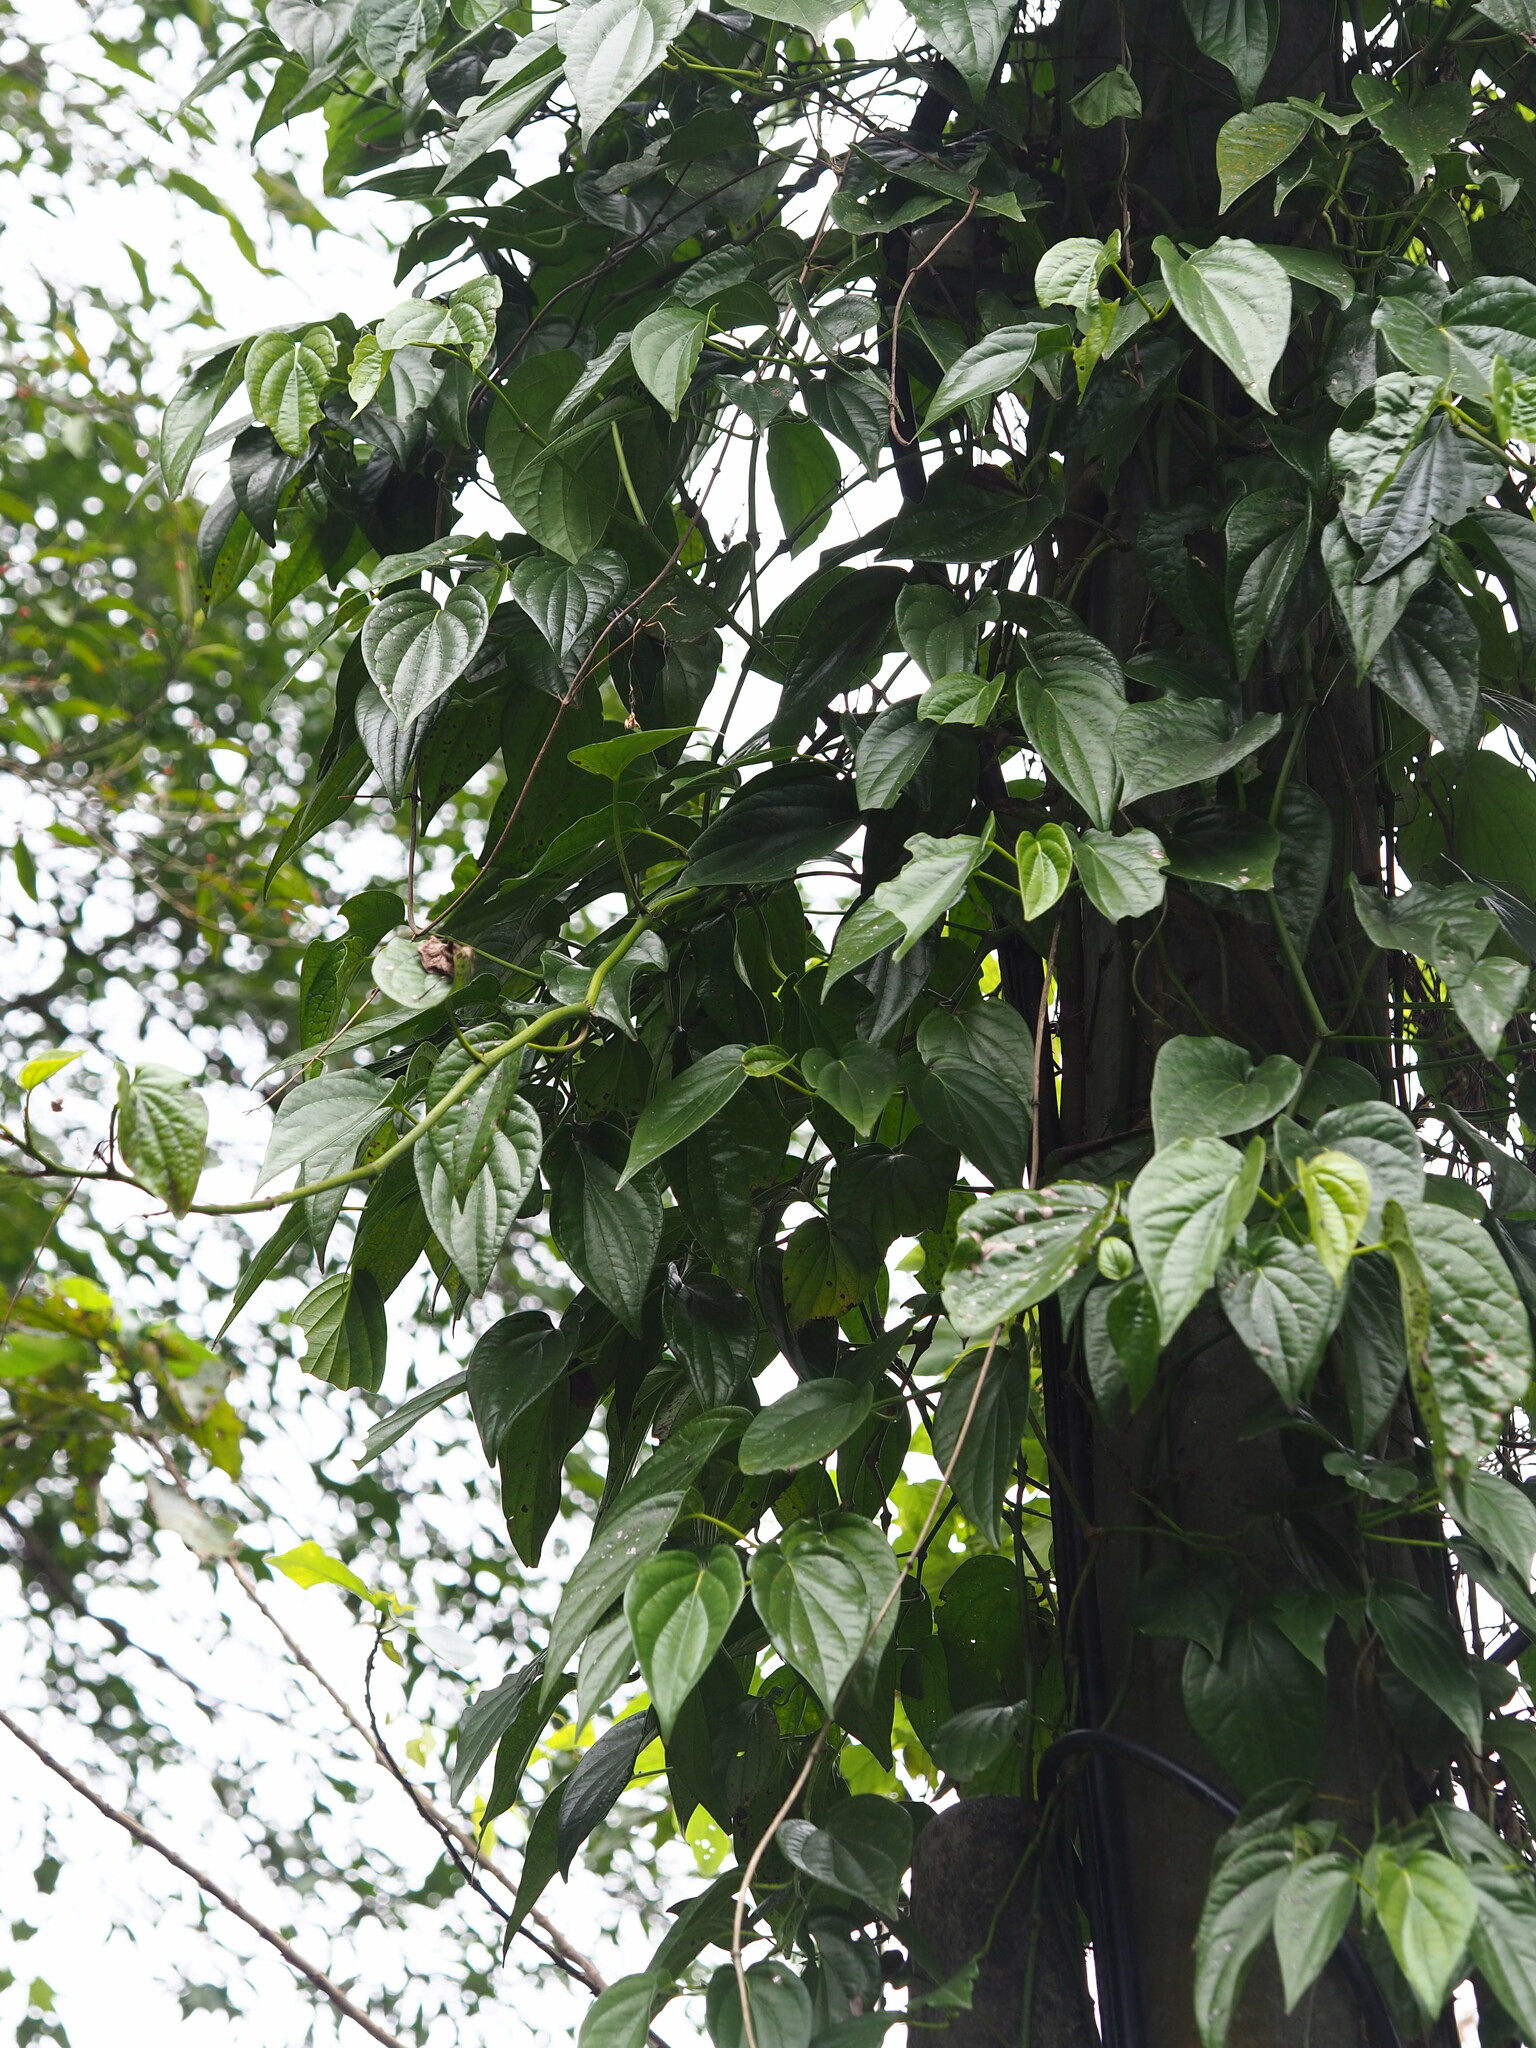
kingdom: Plantae
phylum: Tracheophyta
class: Magnoliopsida
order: Piperales
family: Piperaceae
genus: Piper
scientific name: Piper betle
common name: Betel pepper
